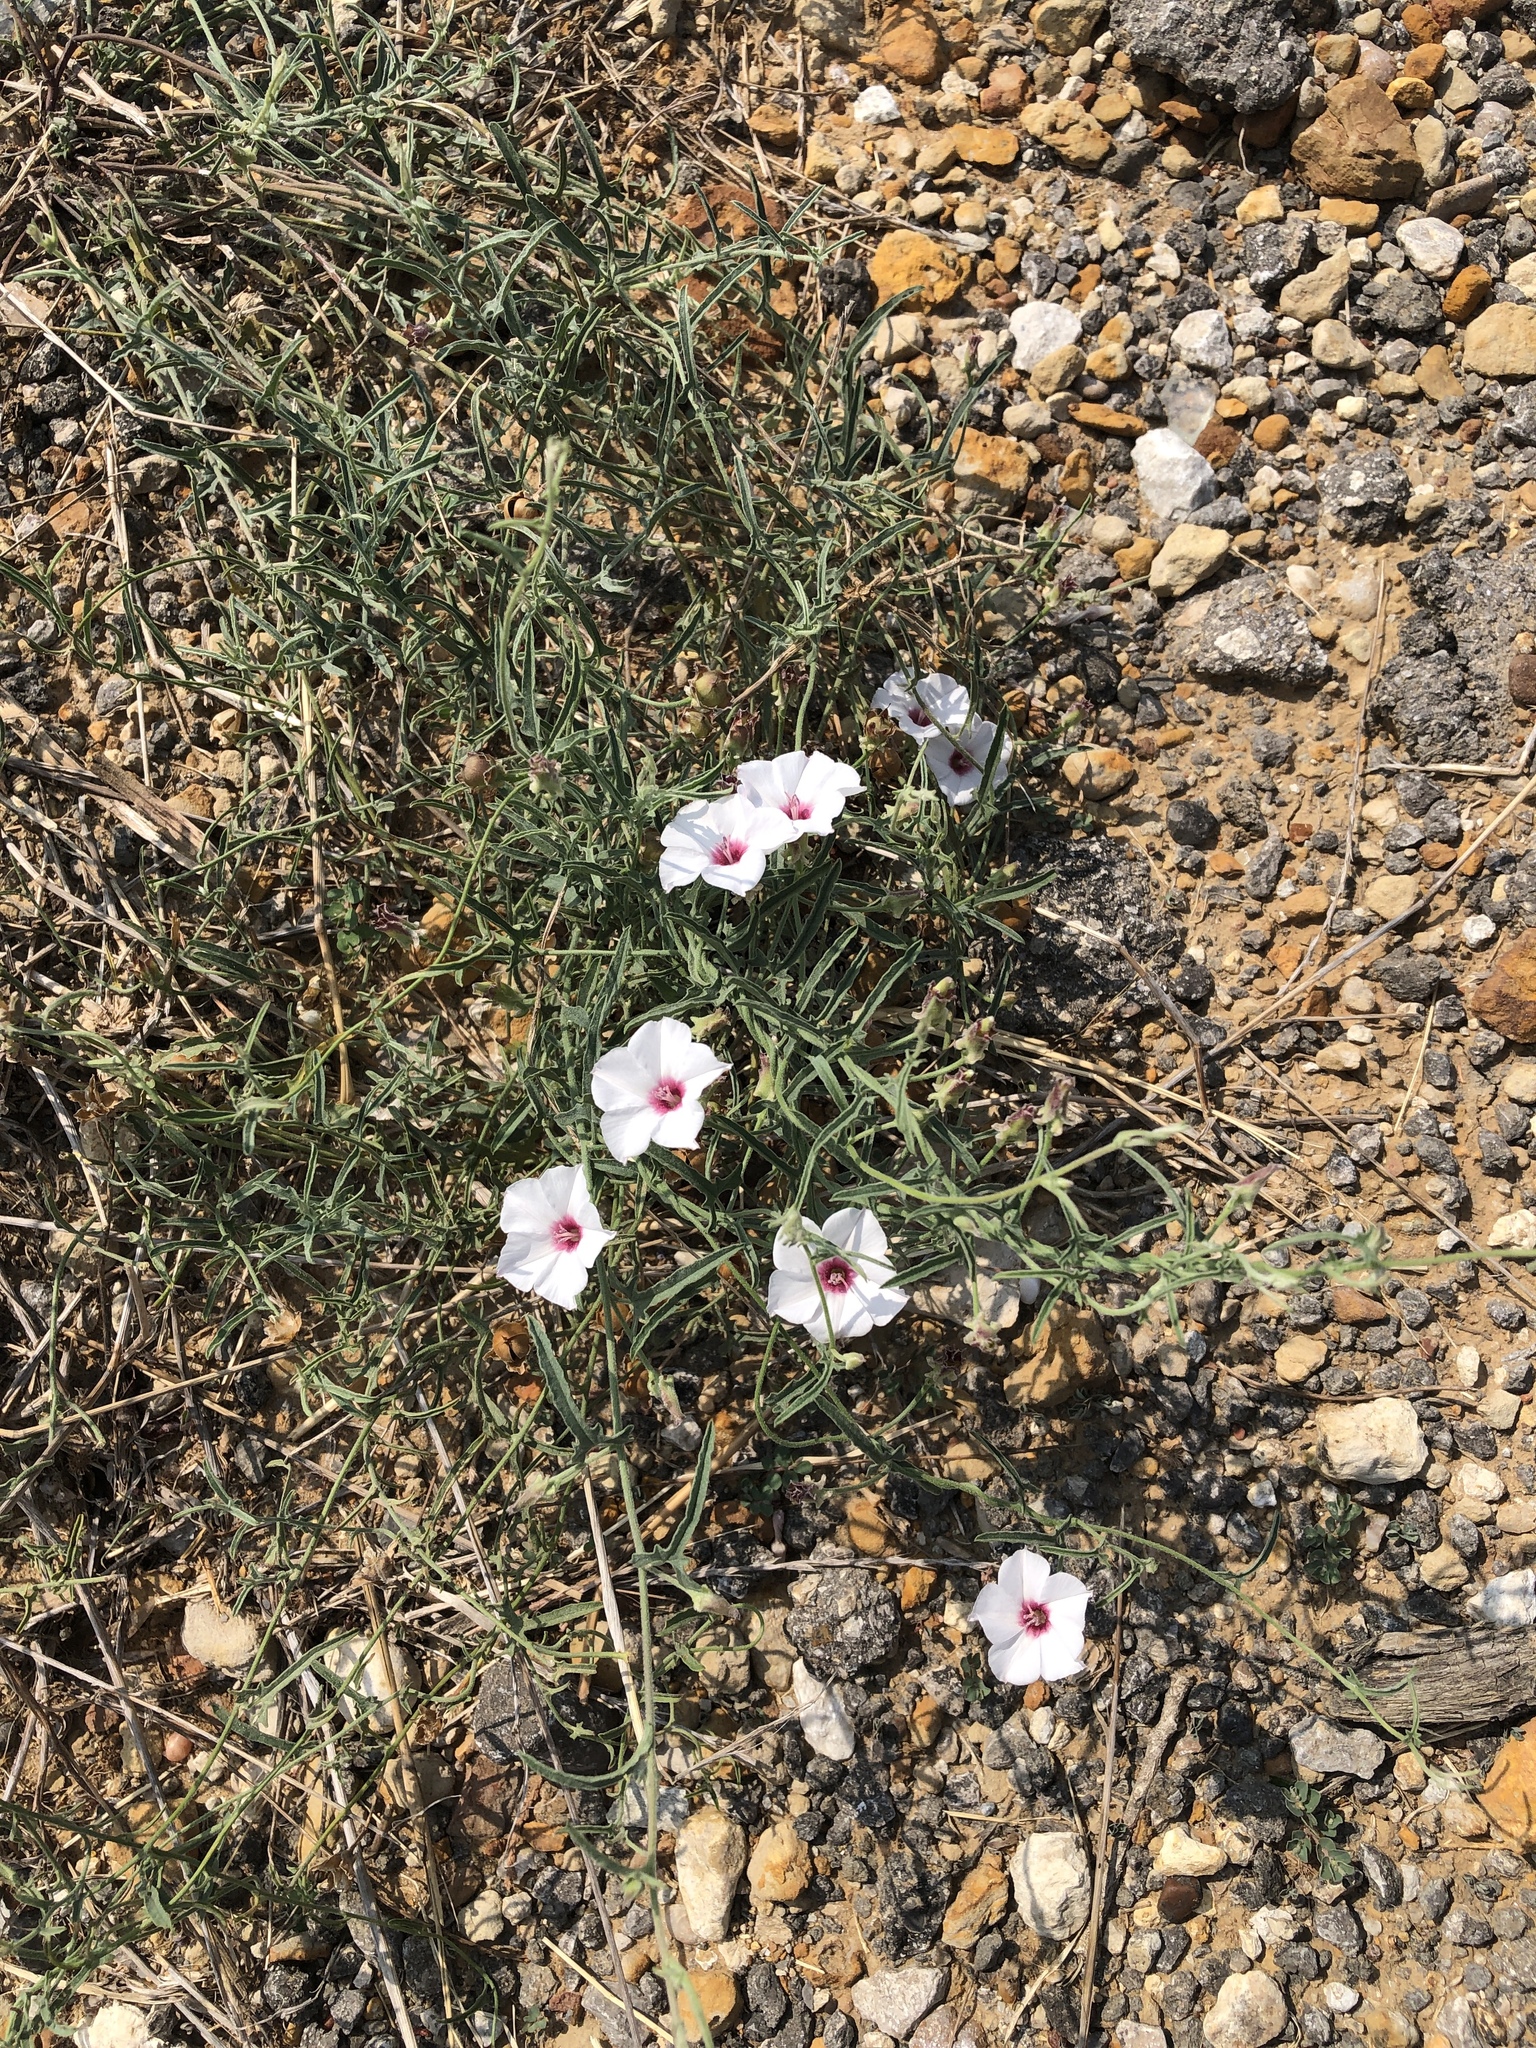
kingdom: Plantae
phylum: Tracheophyta
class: Magnoliopsida
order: Solanales
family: Convolvulaceae
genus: Convolvulus
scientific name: Convolvulus equitans
